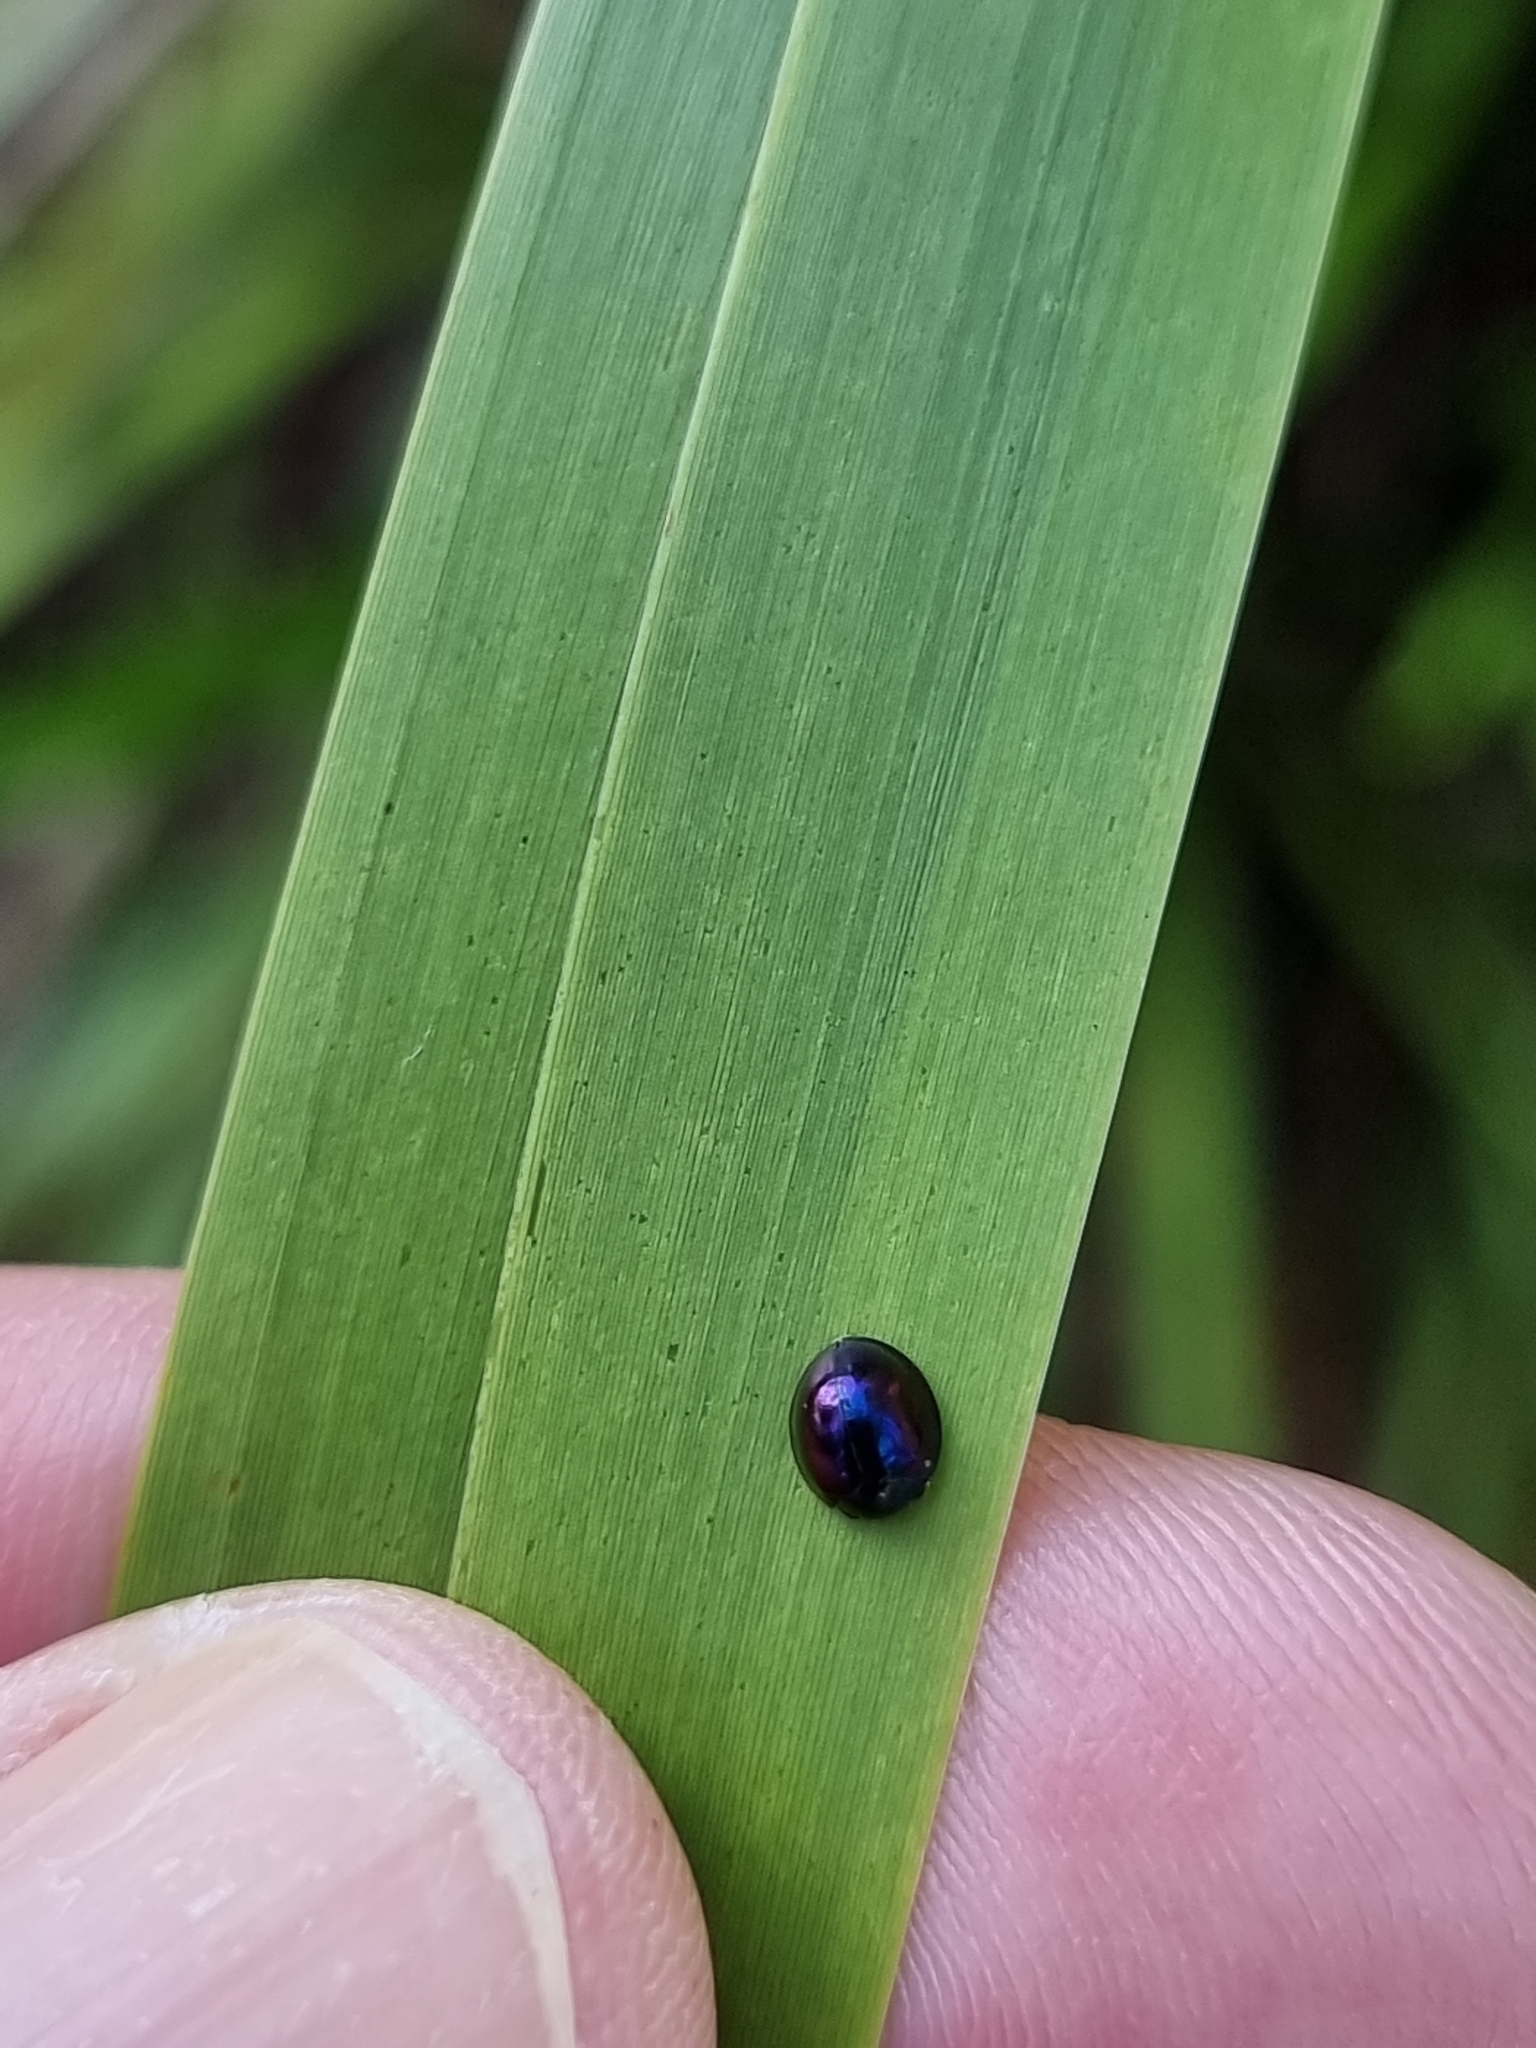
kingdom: Animalia
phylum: Arthropoda
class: Insecta
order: Coleoptera
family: Coccinellidae
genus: Halmus
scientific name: Halmus chalybeus
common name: Steel blue ladybird beetle
